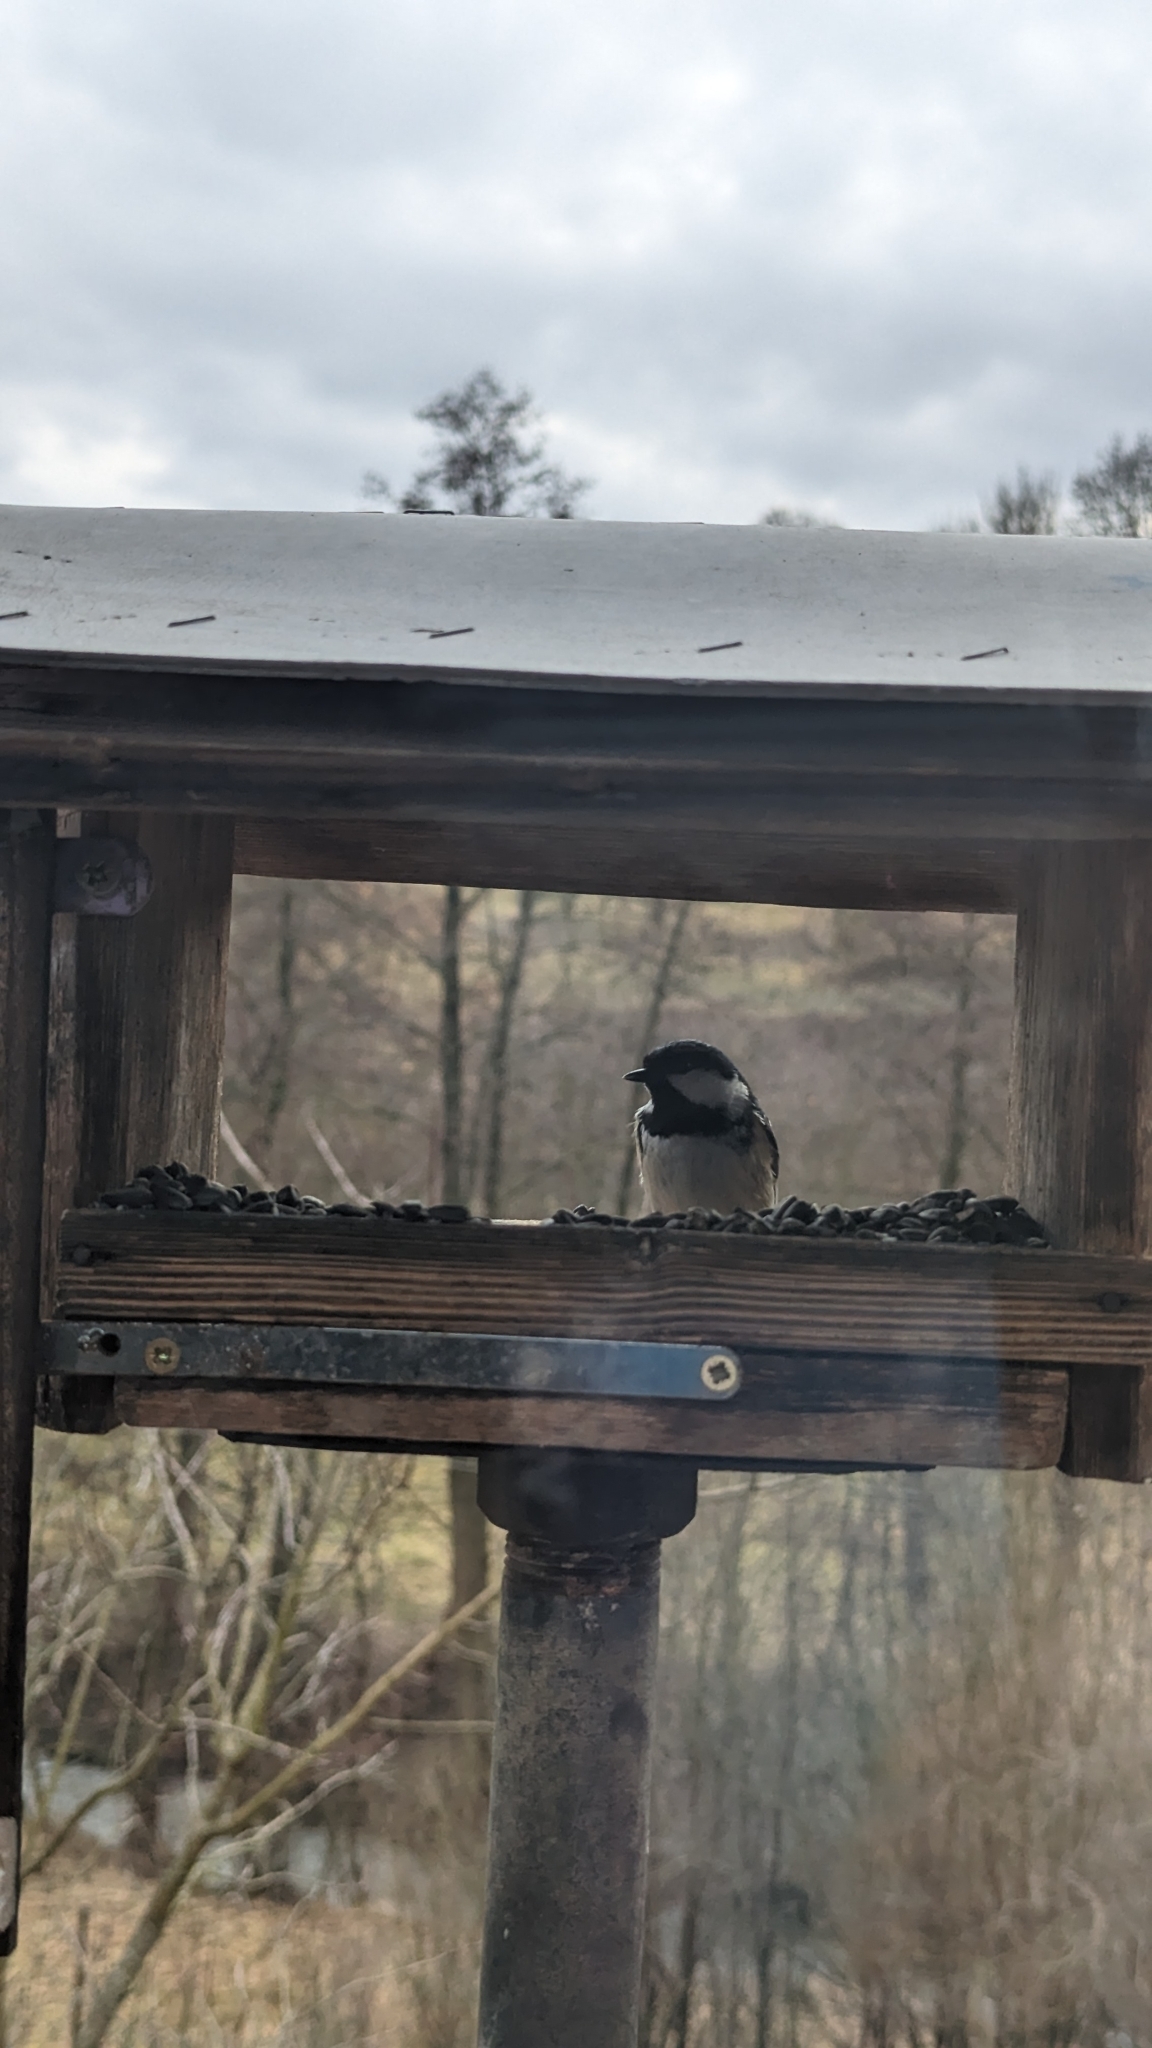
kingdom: Animalia
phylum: Chordata
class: Aves
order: Passeriformes
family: Paridae
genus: Periparus
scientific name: Periparus ater
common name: Coal tit
